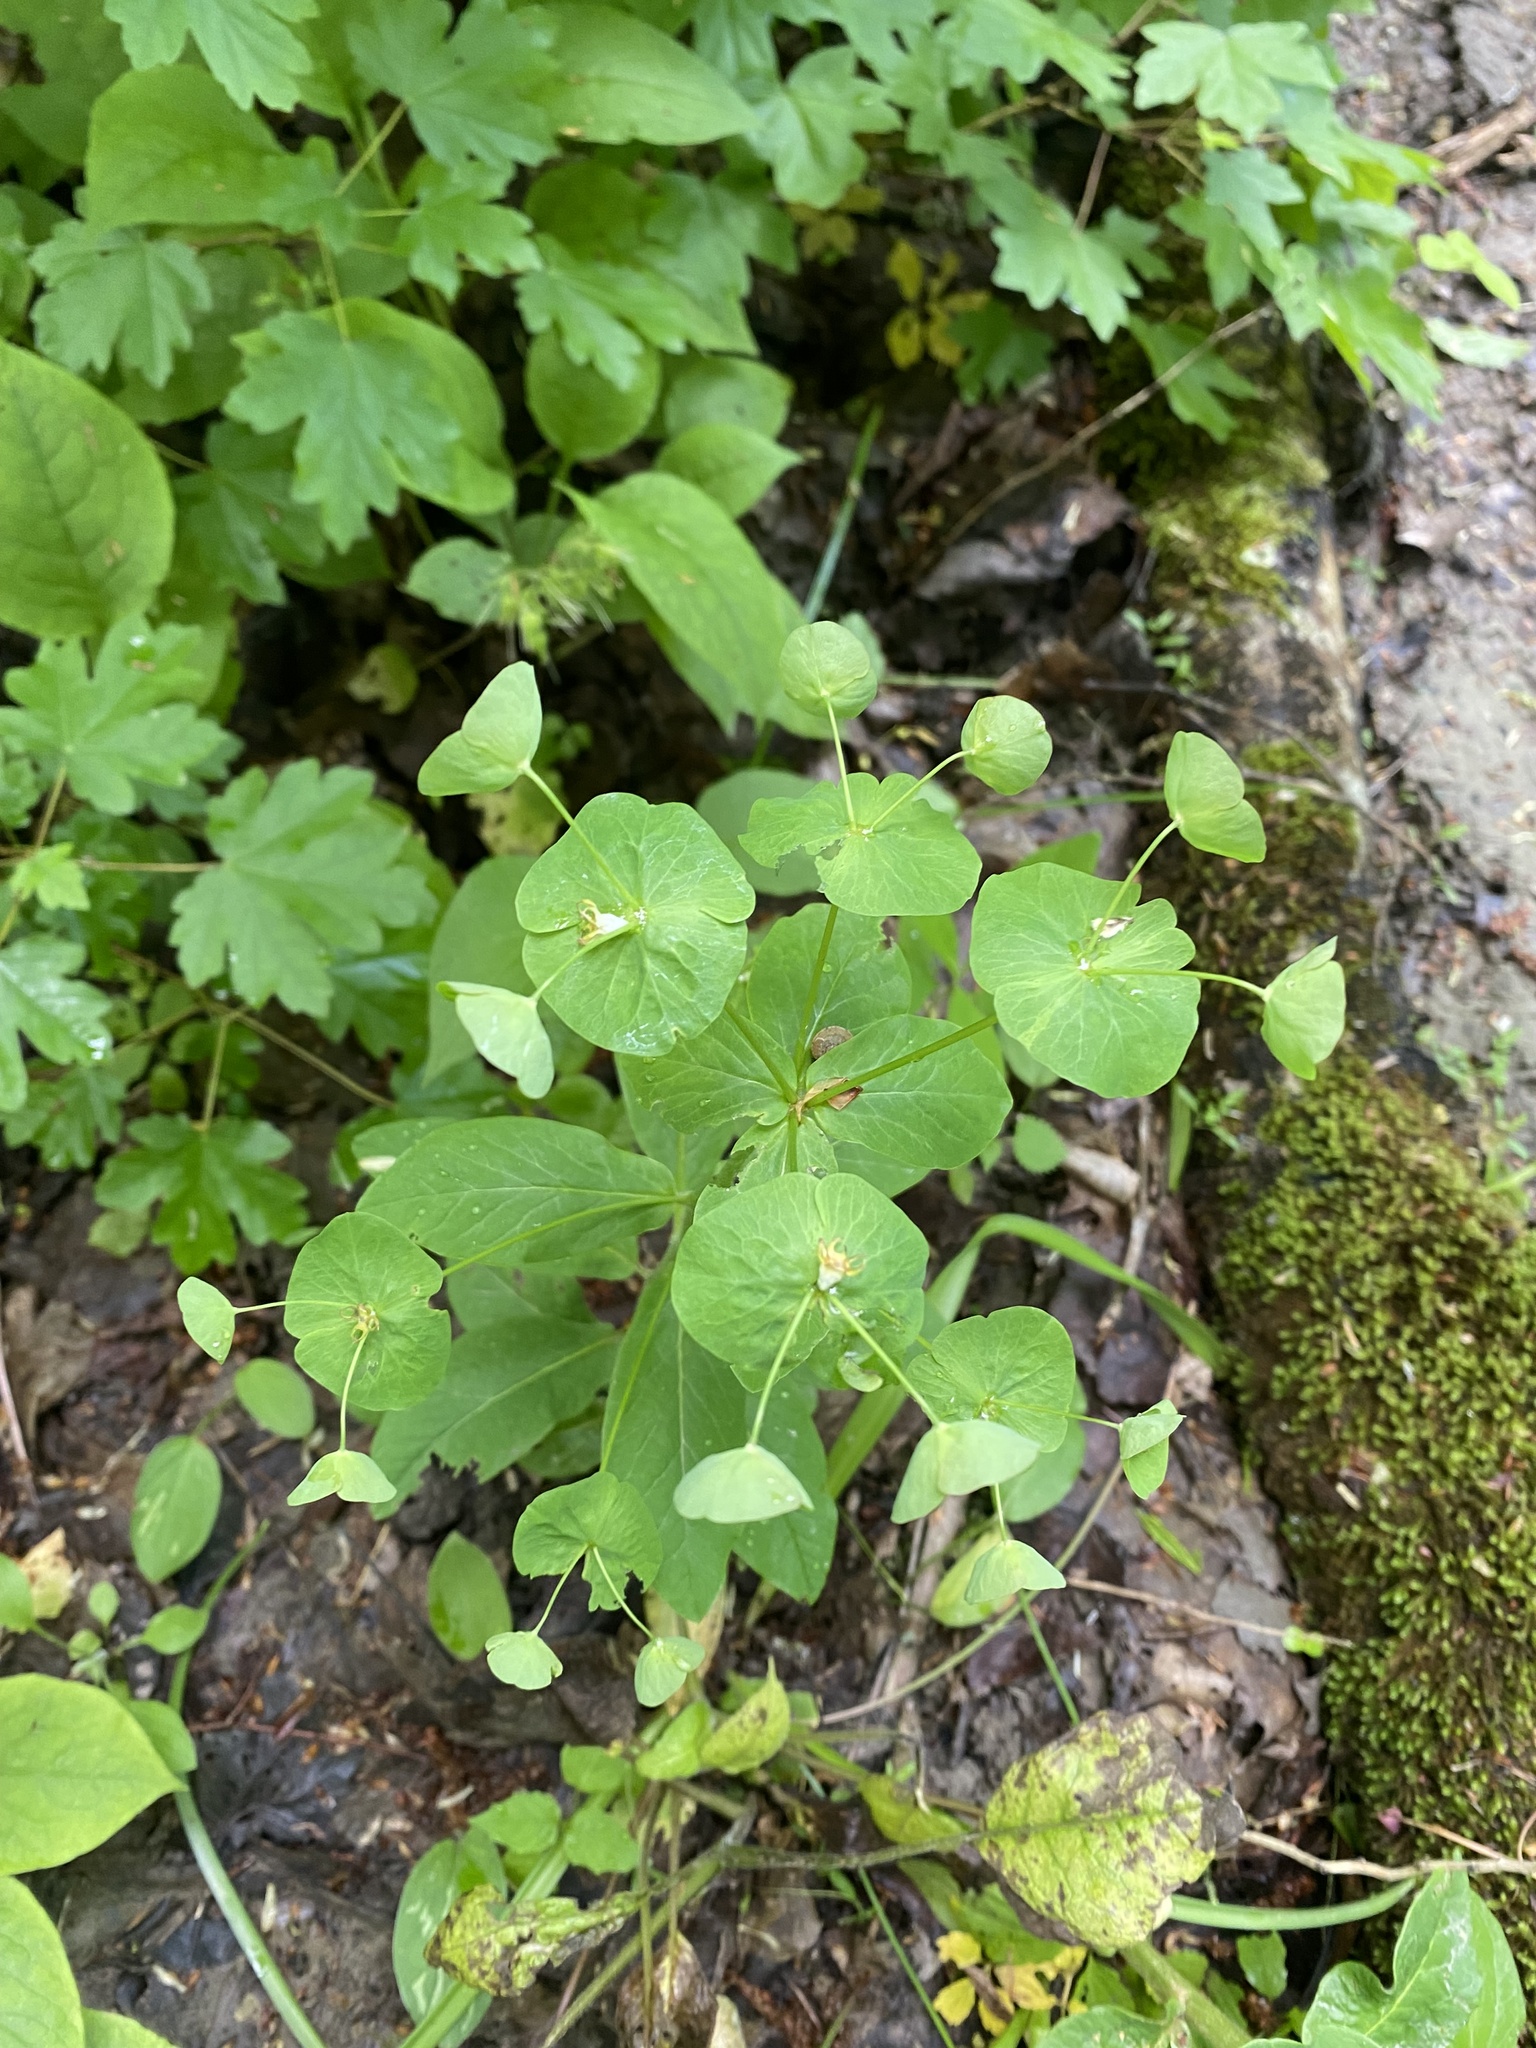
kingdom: Plantae
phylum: Tracheophyta
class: Magnoliopsida
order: Malpighiales
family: Euphorbiaceae
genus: Euphorbia
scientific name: Euphorbia squamosa
